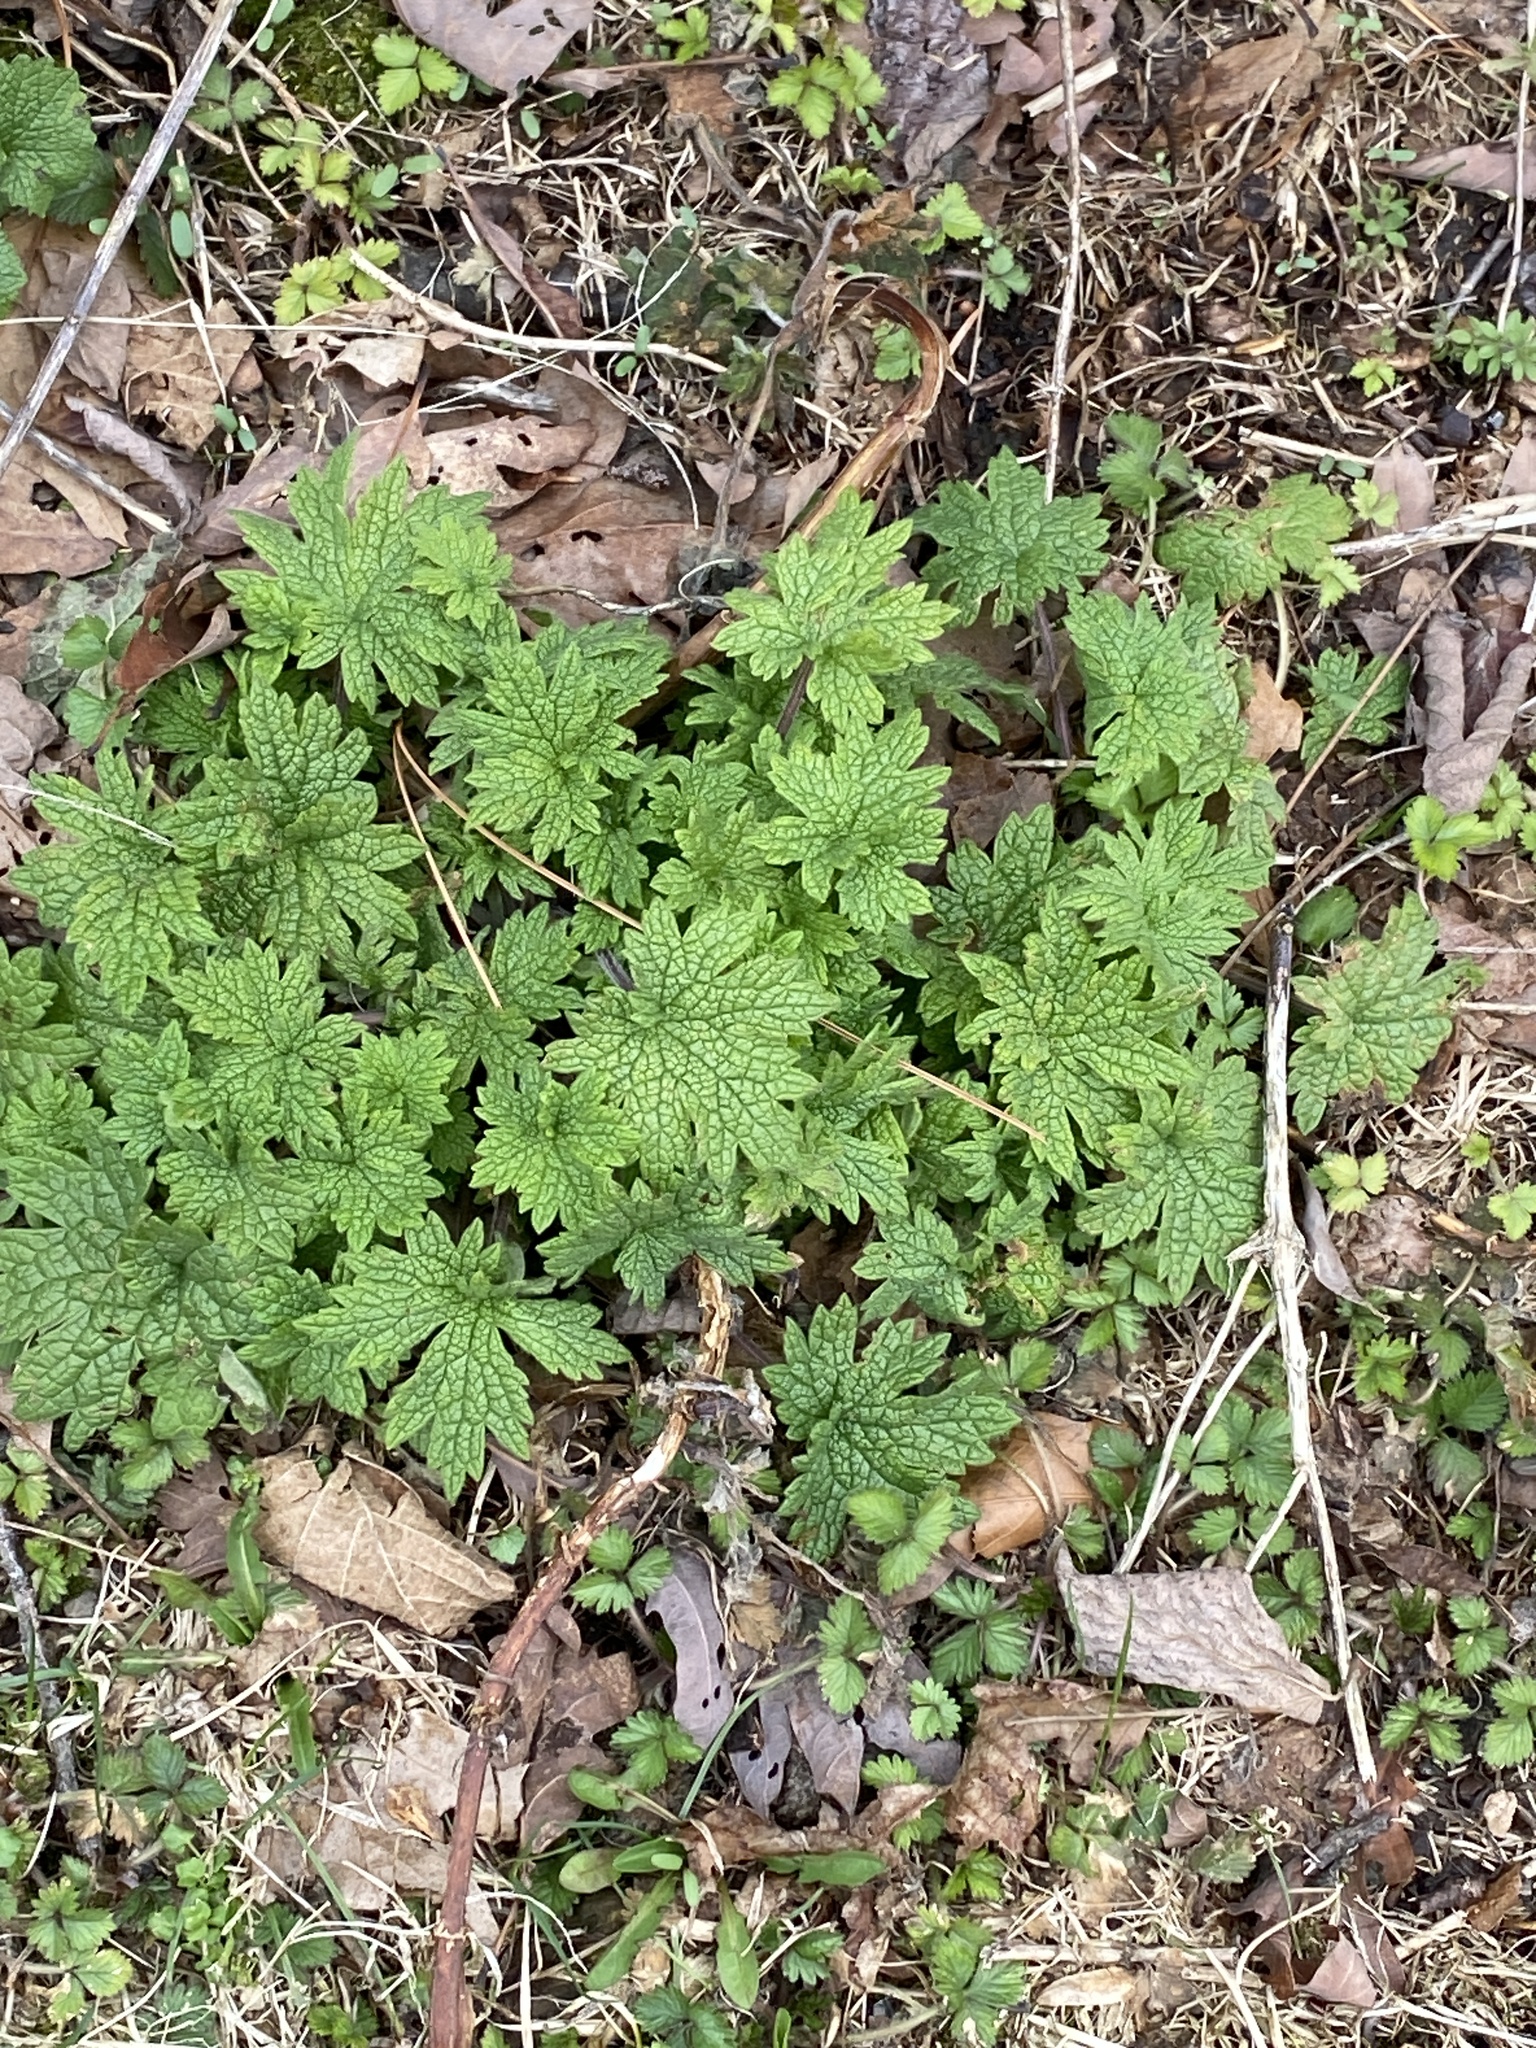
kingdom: Plantae
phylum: Tracheophyta
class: Magnoliopsida
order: Lamiales
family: Lamiaceae
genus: Leonurus
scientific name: Leonurus cardiaca
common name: Motherwort
